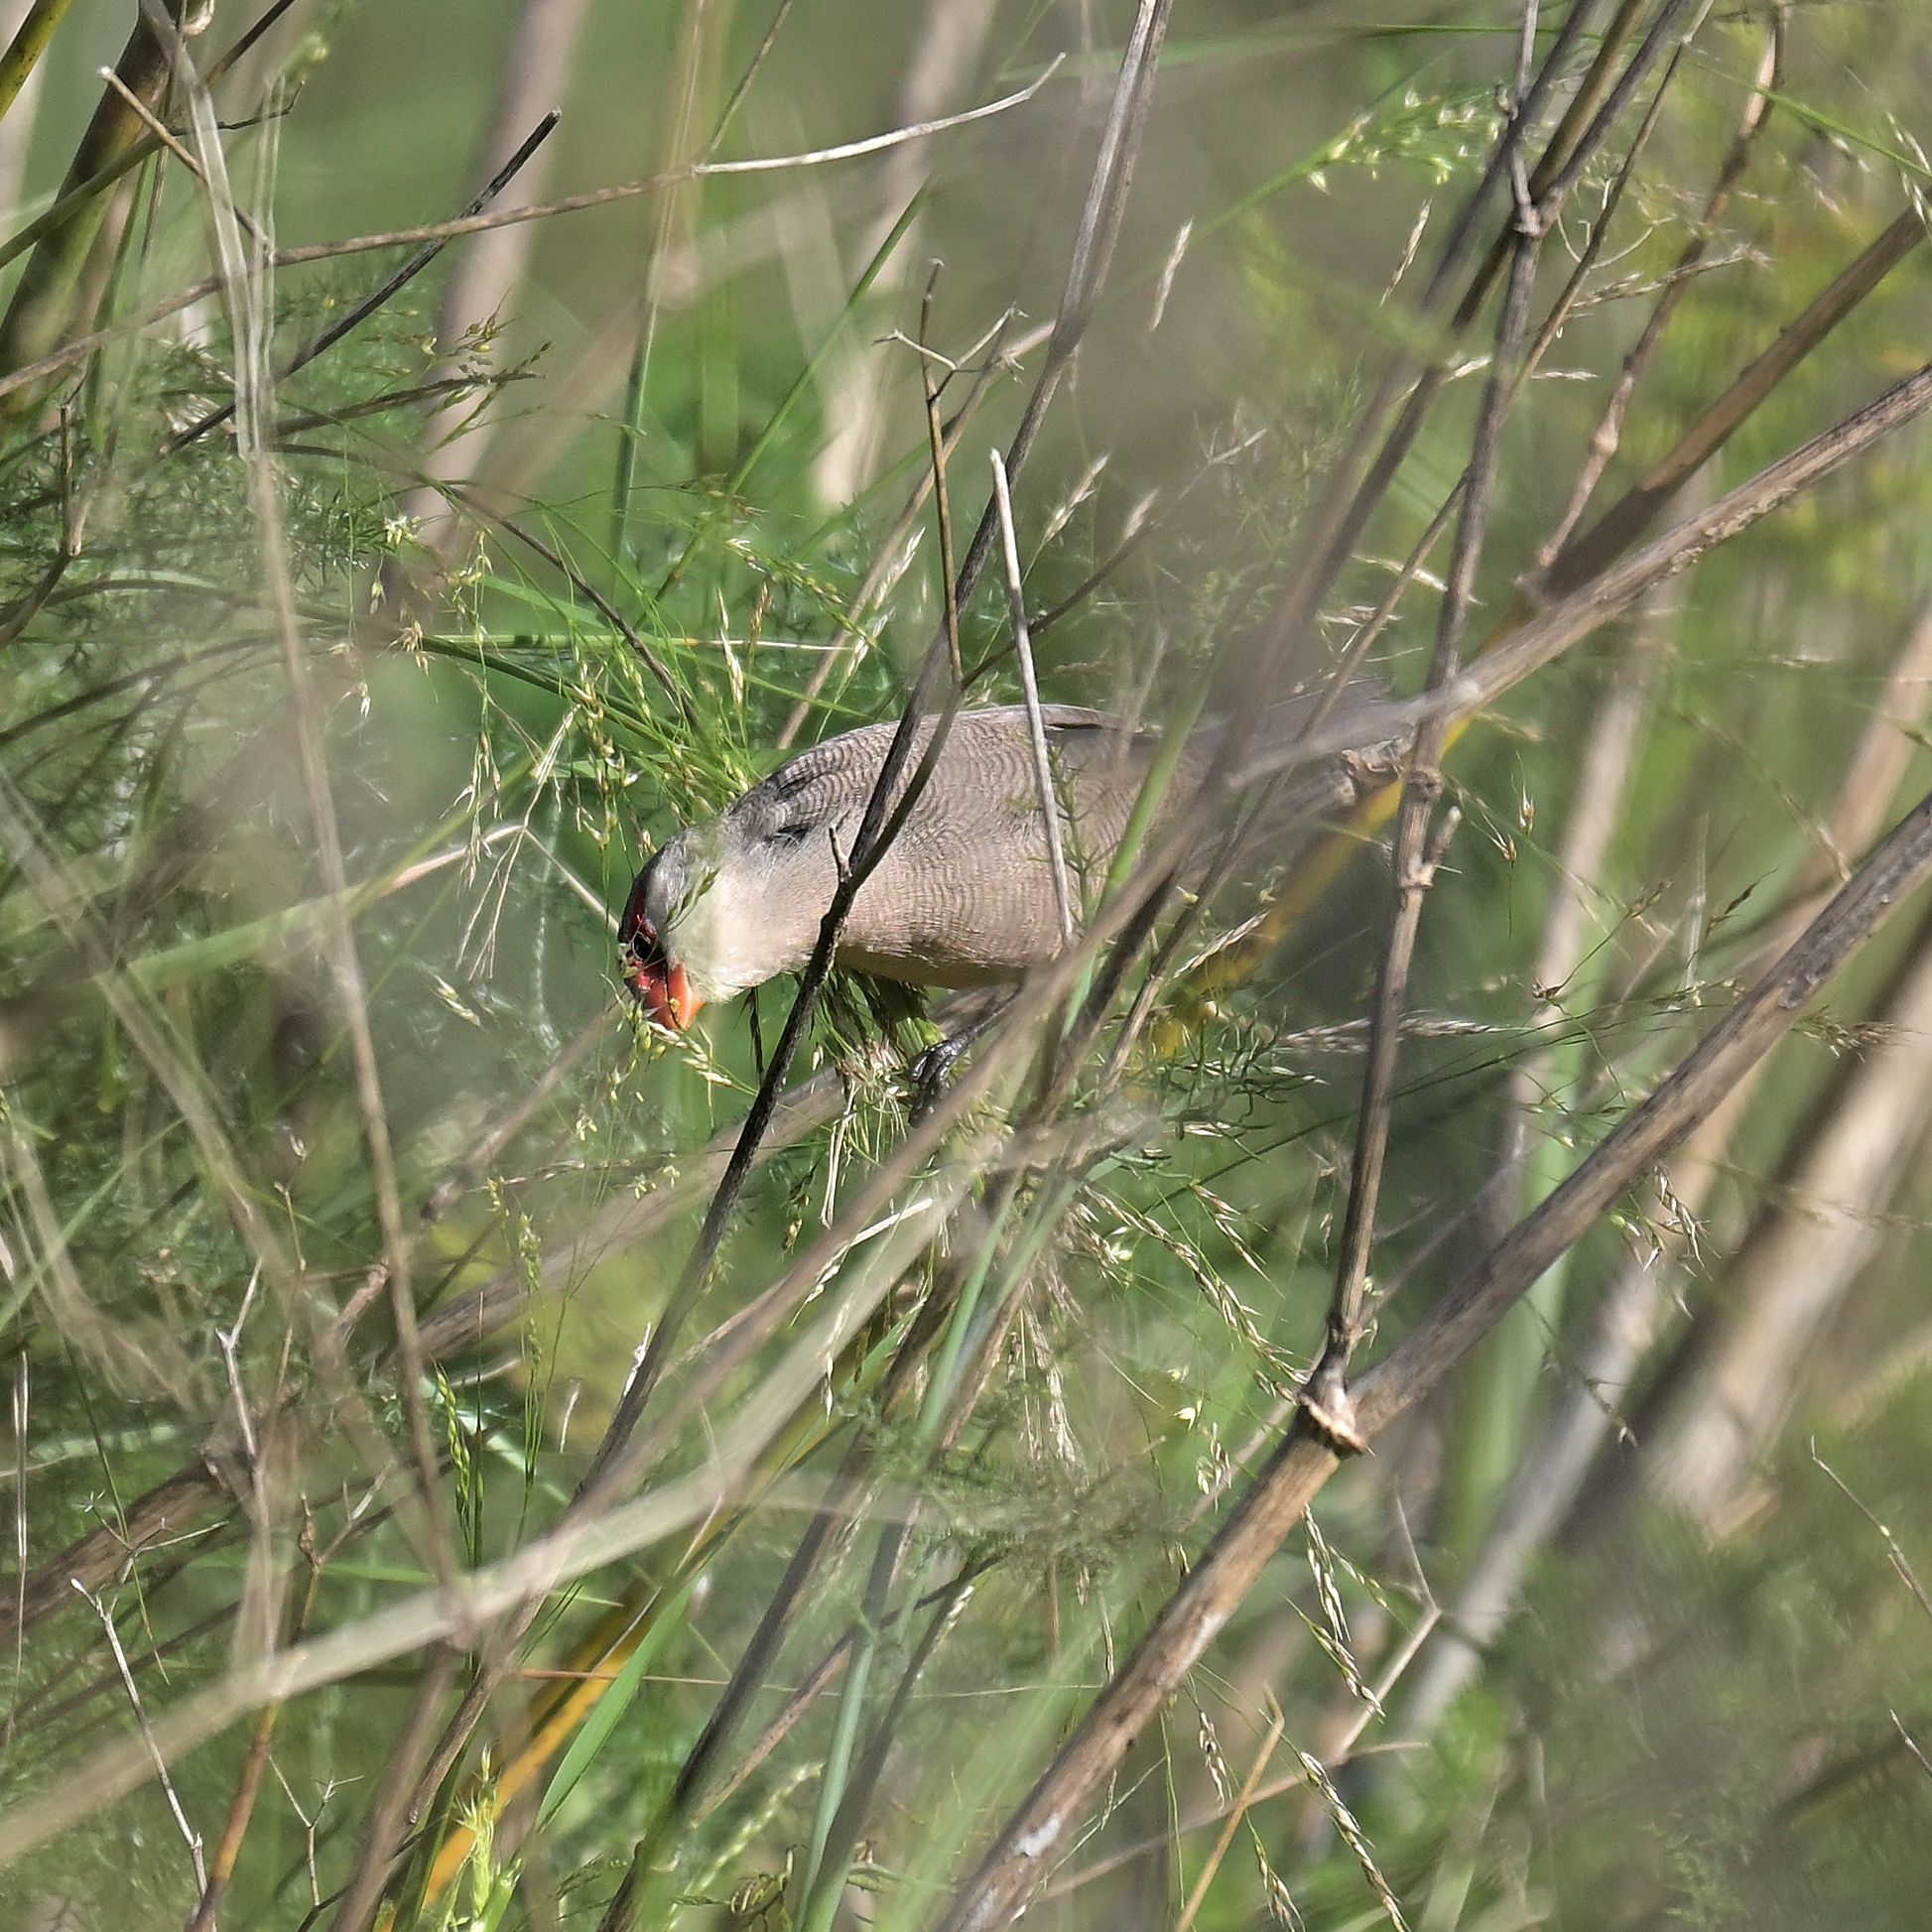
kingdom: Animalia
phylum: Chordata
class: Aves
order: Passeriformes
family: Estrildidae
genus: Estrilda
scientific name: Estrilda astrild
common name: Common waxbill
